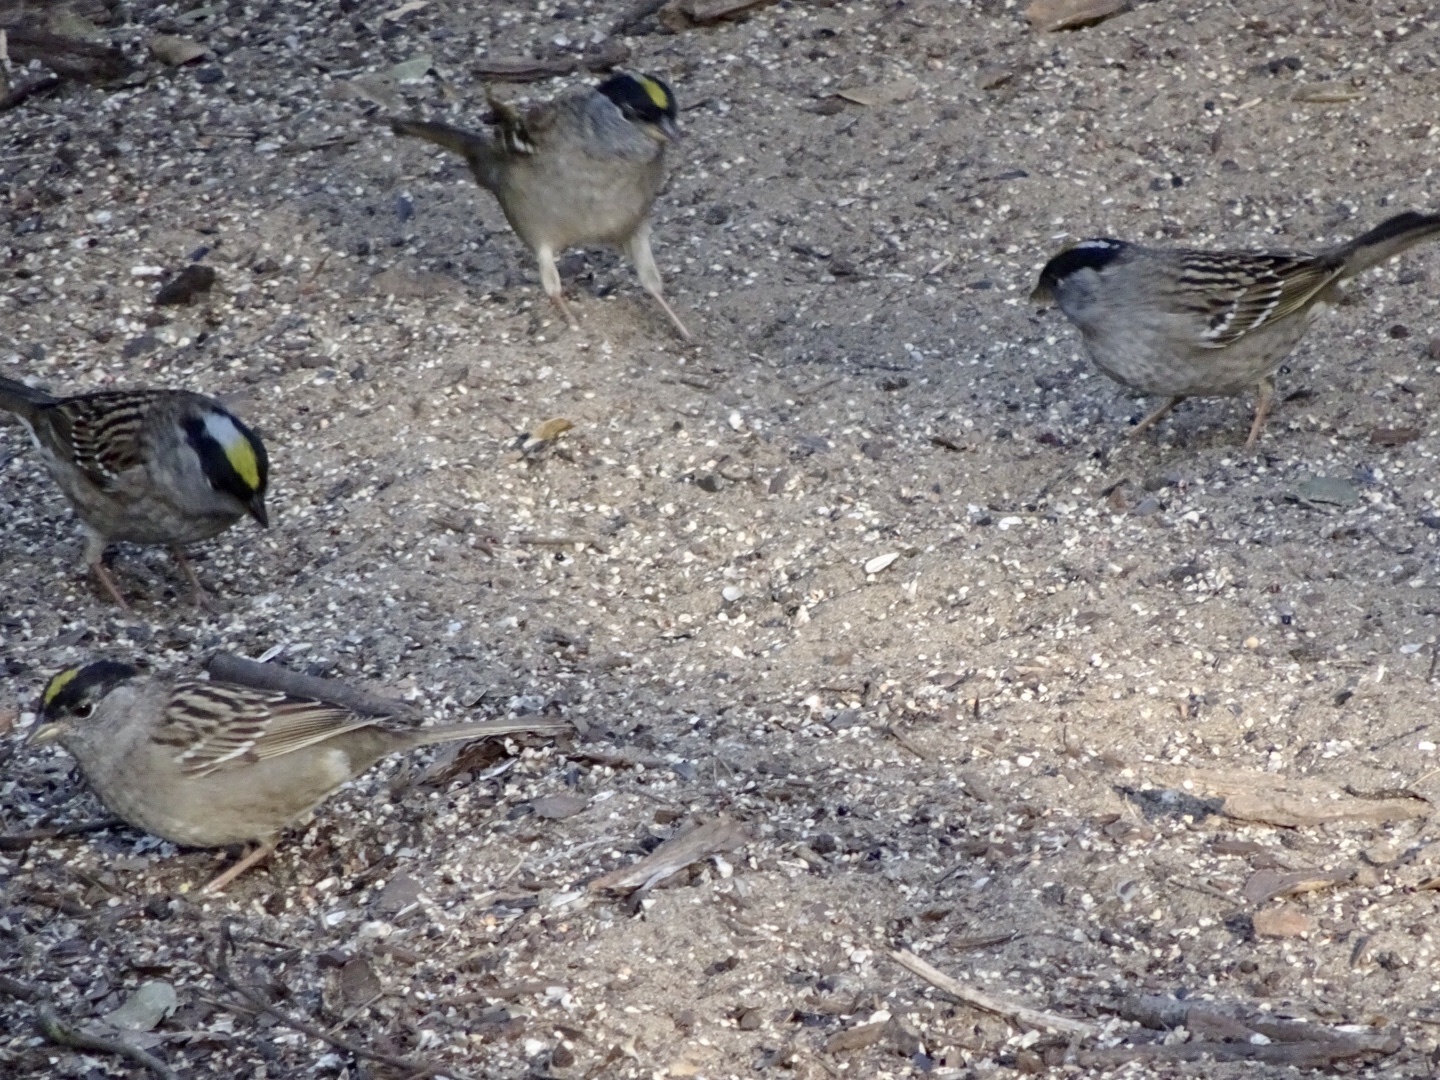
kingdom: Animalia
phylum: Chordata
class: Aves
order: Passeriformes
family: Passerellidae
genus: Zonotrichia
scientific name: Zonotrichia atricapilla
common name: Golden-crowned sparrow
